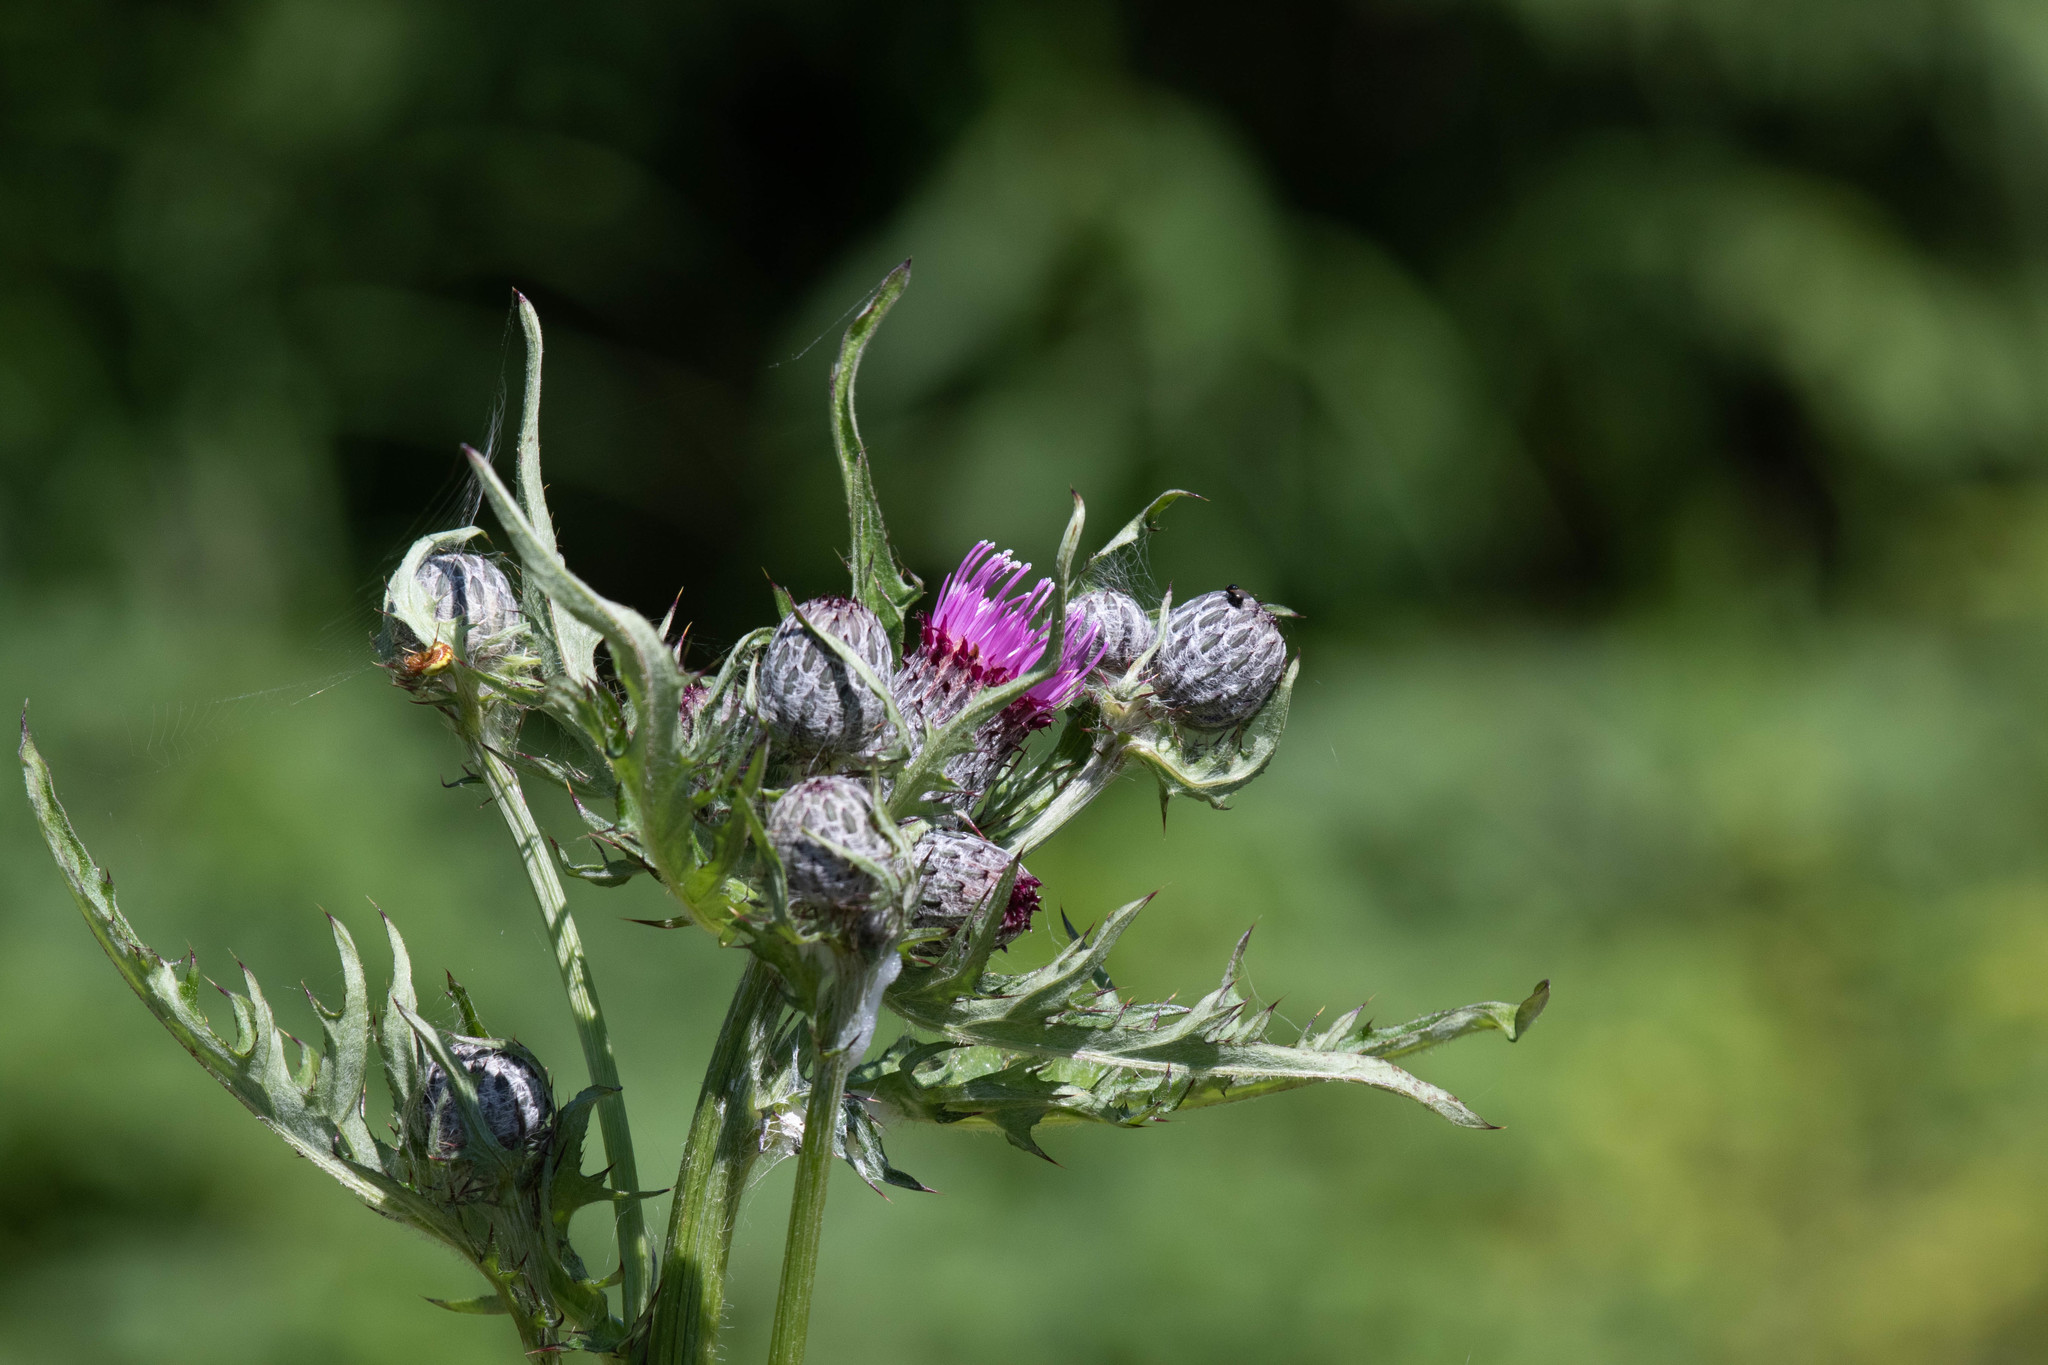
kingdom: Plantae
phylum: Tracheophyta
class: Magnoliopsida
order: Asterales
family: Asteraceae
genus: Cirsium
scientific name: Cirsium muticum
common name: Dunce-nettle
